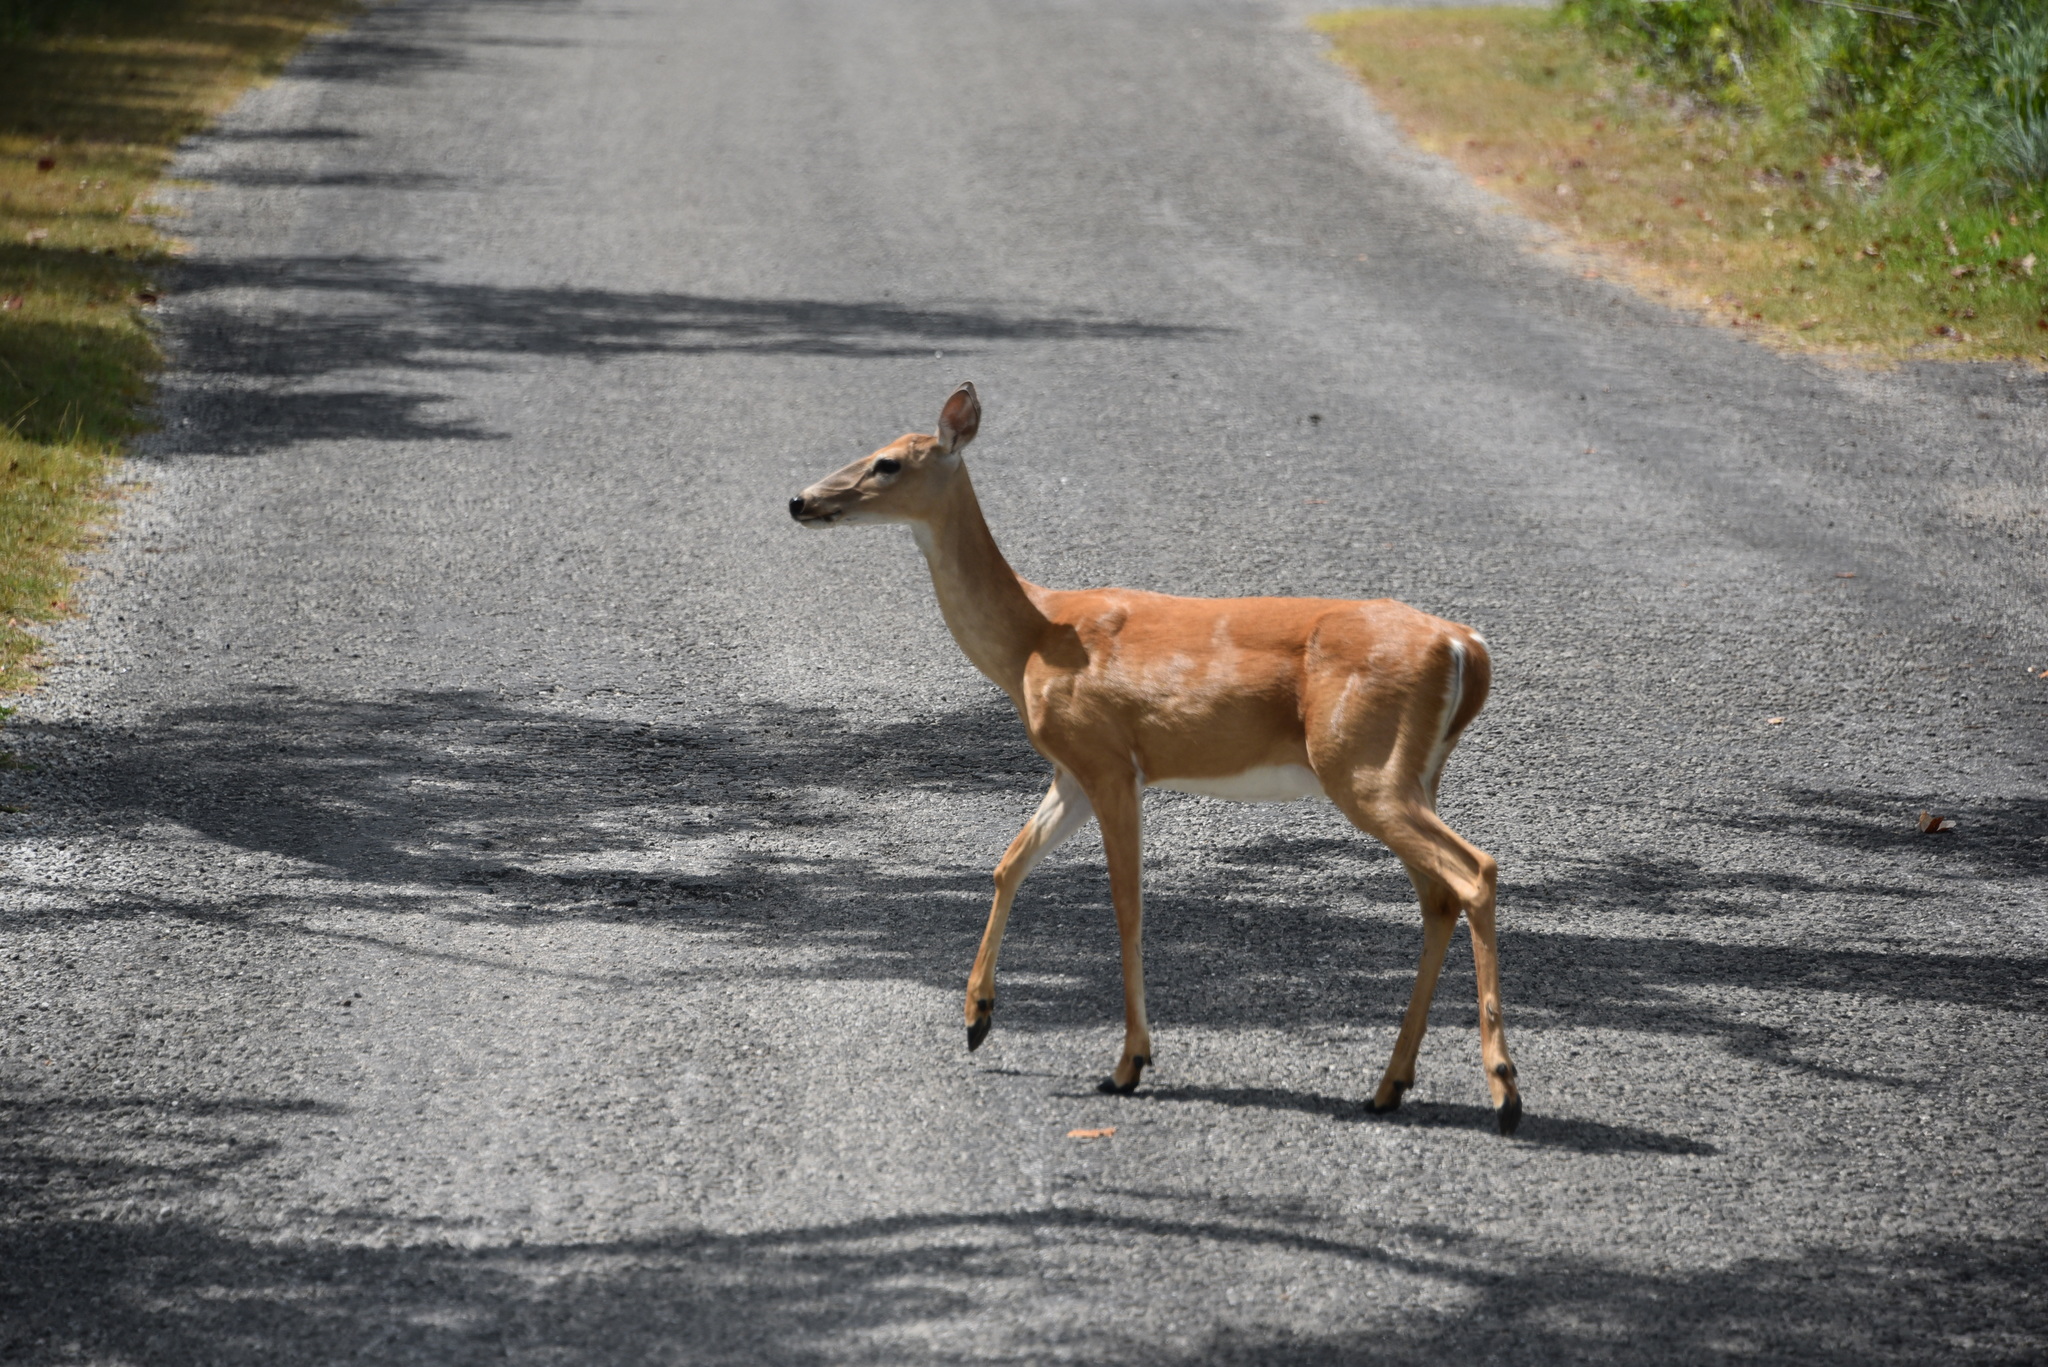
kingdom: Animalia
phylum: Chordata
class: Mammalia
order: Artiodactyla
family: Cervidae
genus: Odocoileus
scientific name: Odocoileus virginianus
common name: White-tailed deer
